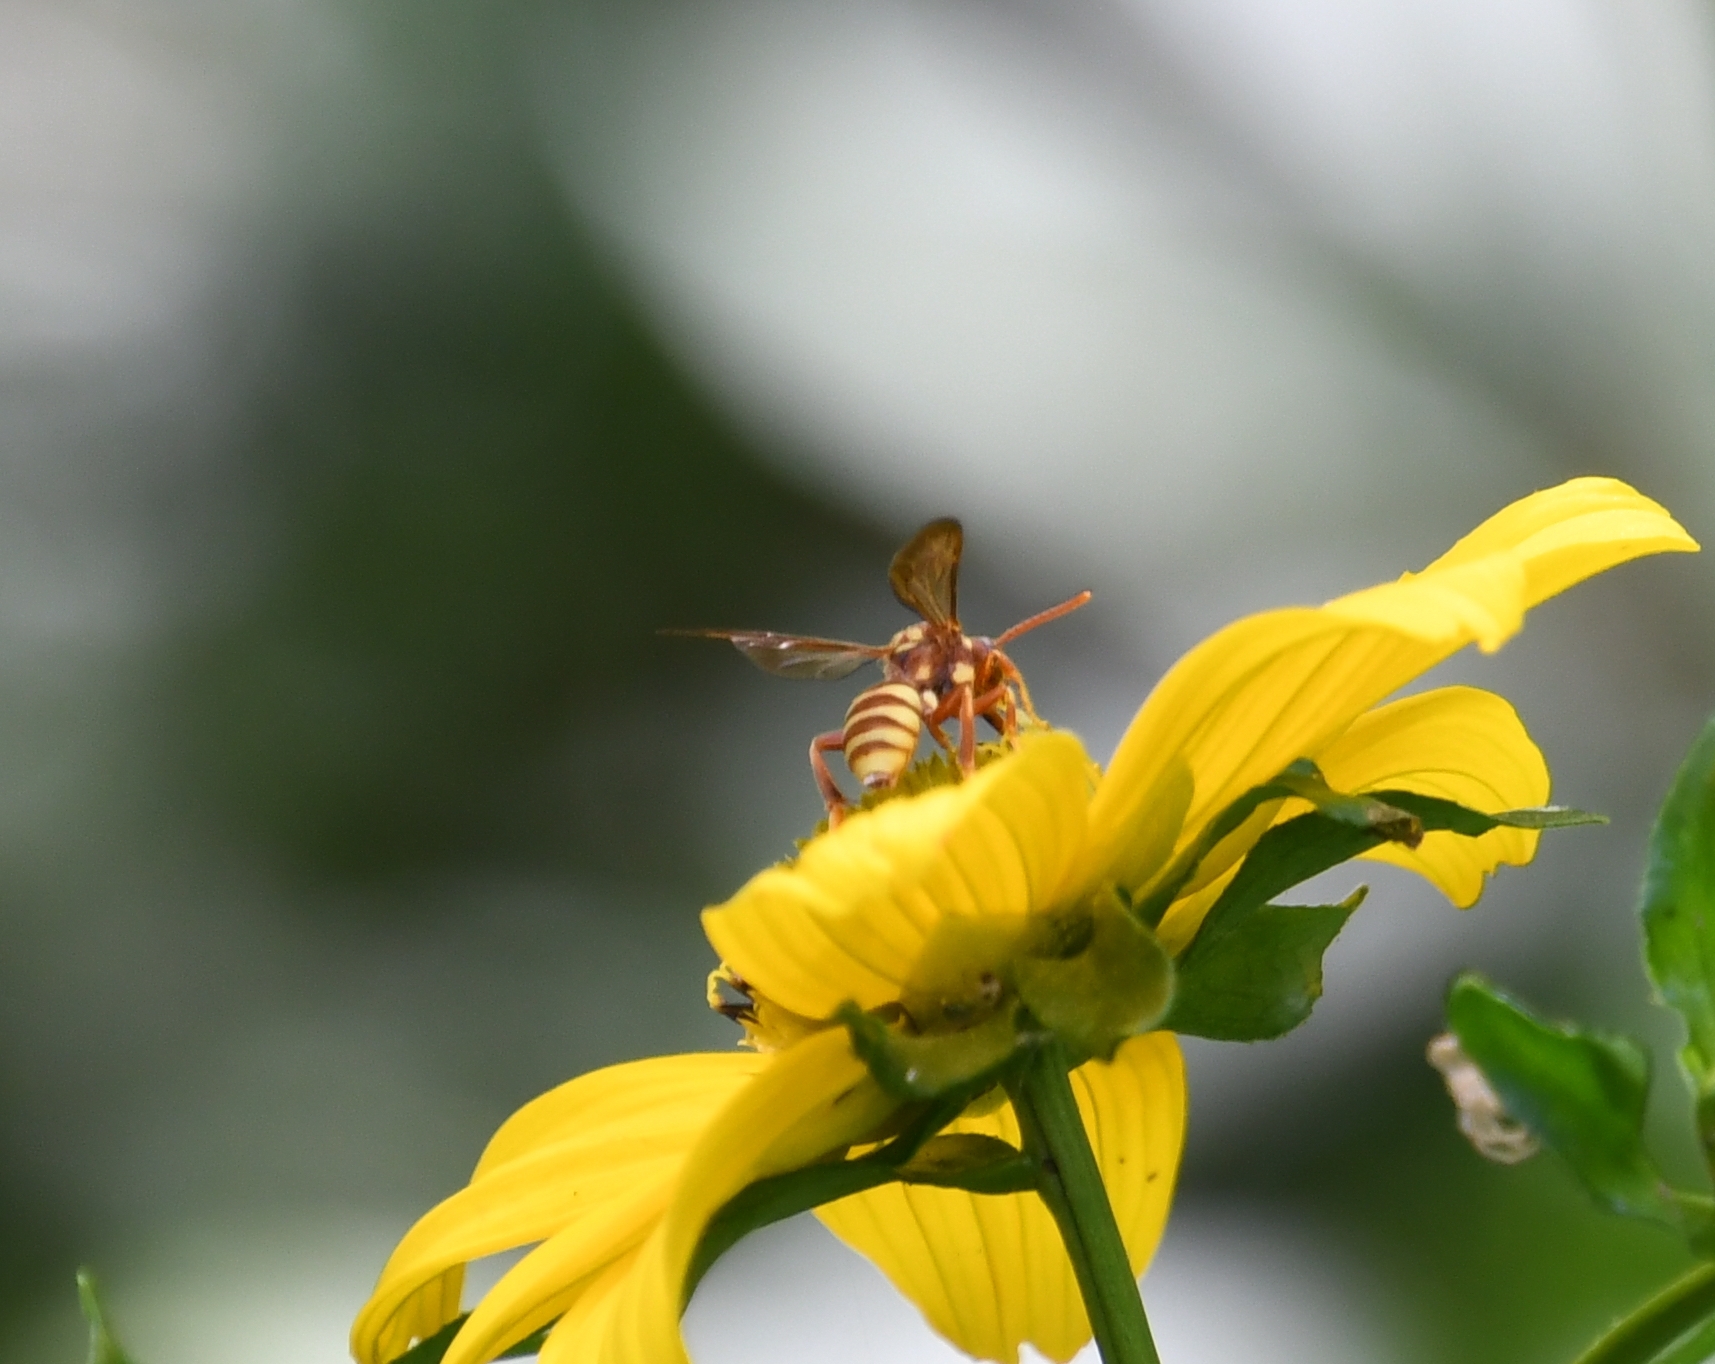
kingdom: Animalia
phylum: Arthropoda
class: Insecta
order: Hymenoptera
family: Apidae
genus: Nomada
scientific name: Nomada
